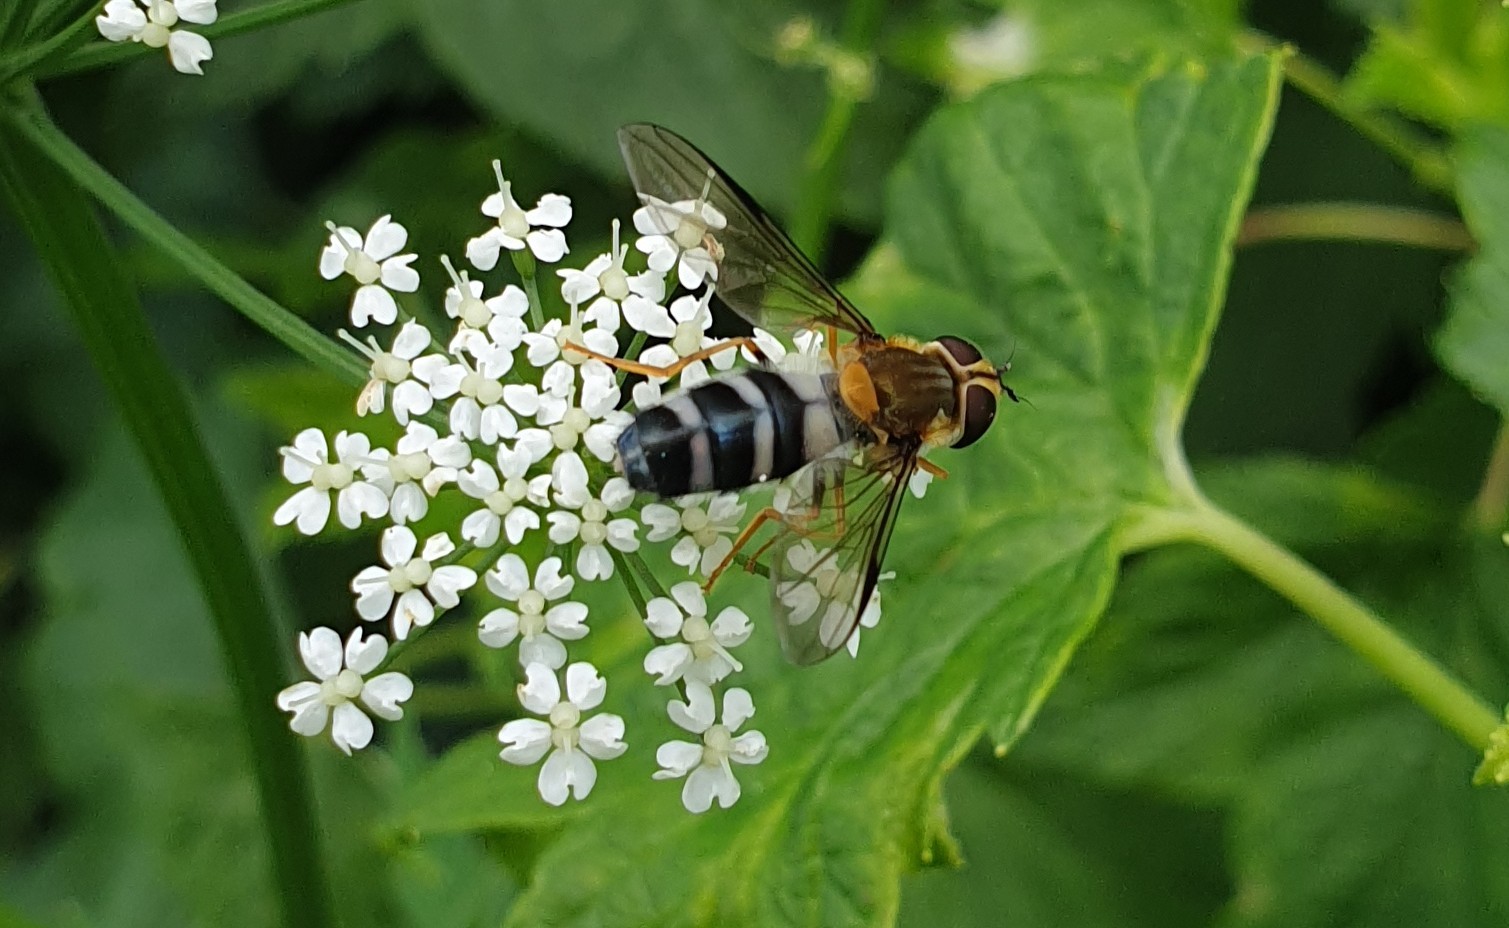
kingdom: Animalia
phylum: Arthropoda
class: Insecta
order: Diptera
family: Syrphidae
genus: Leucozona
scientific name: Leucozona glaucia
